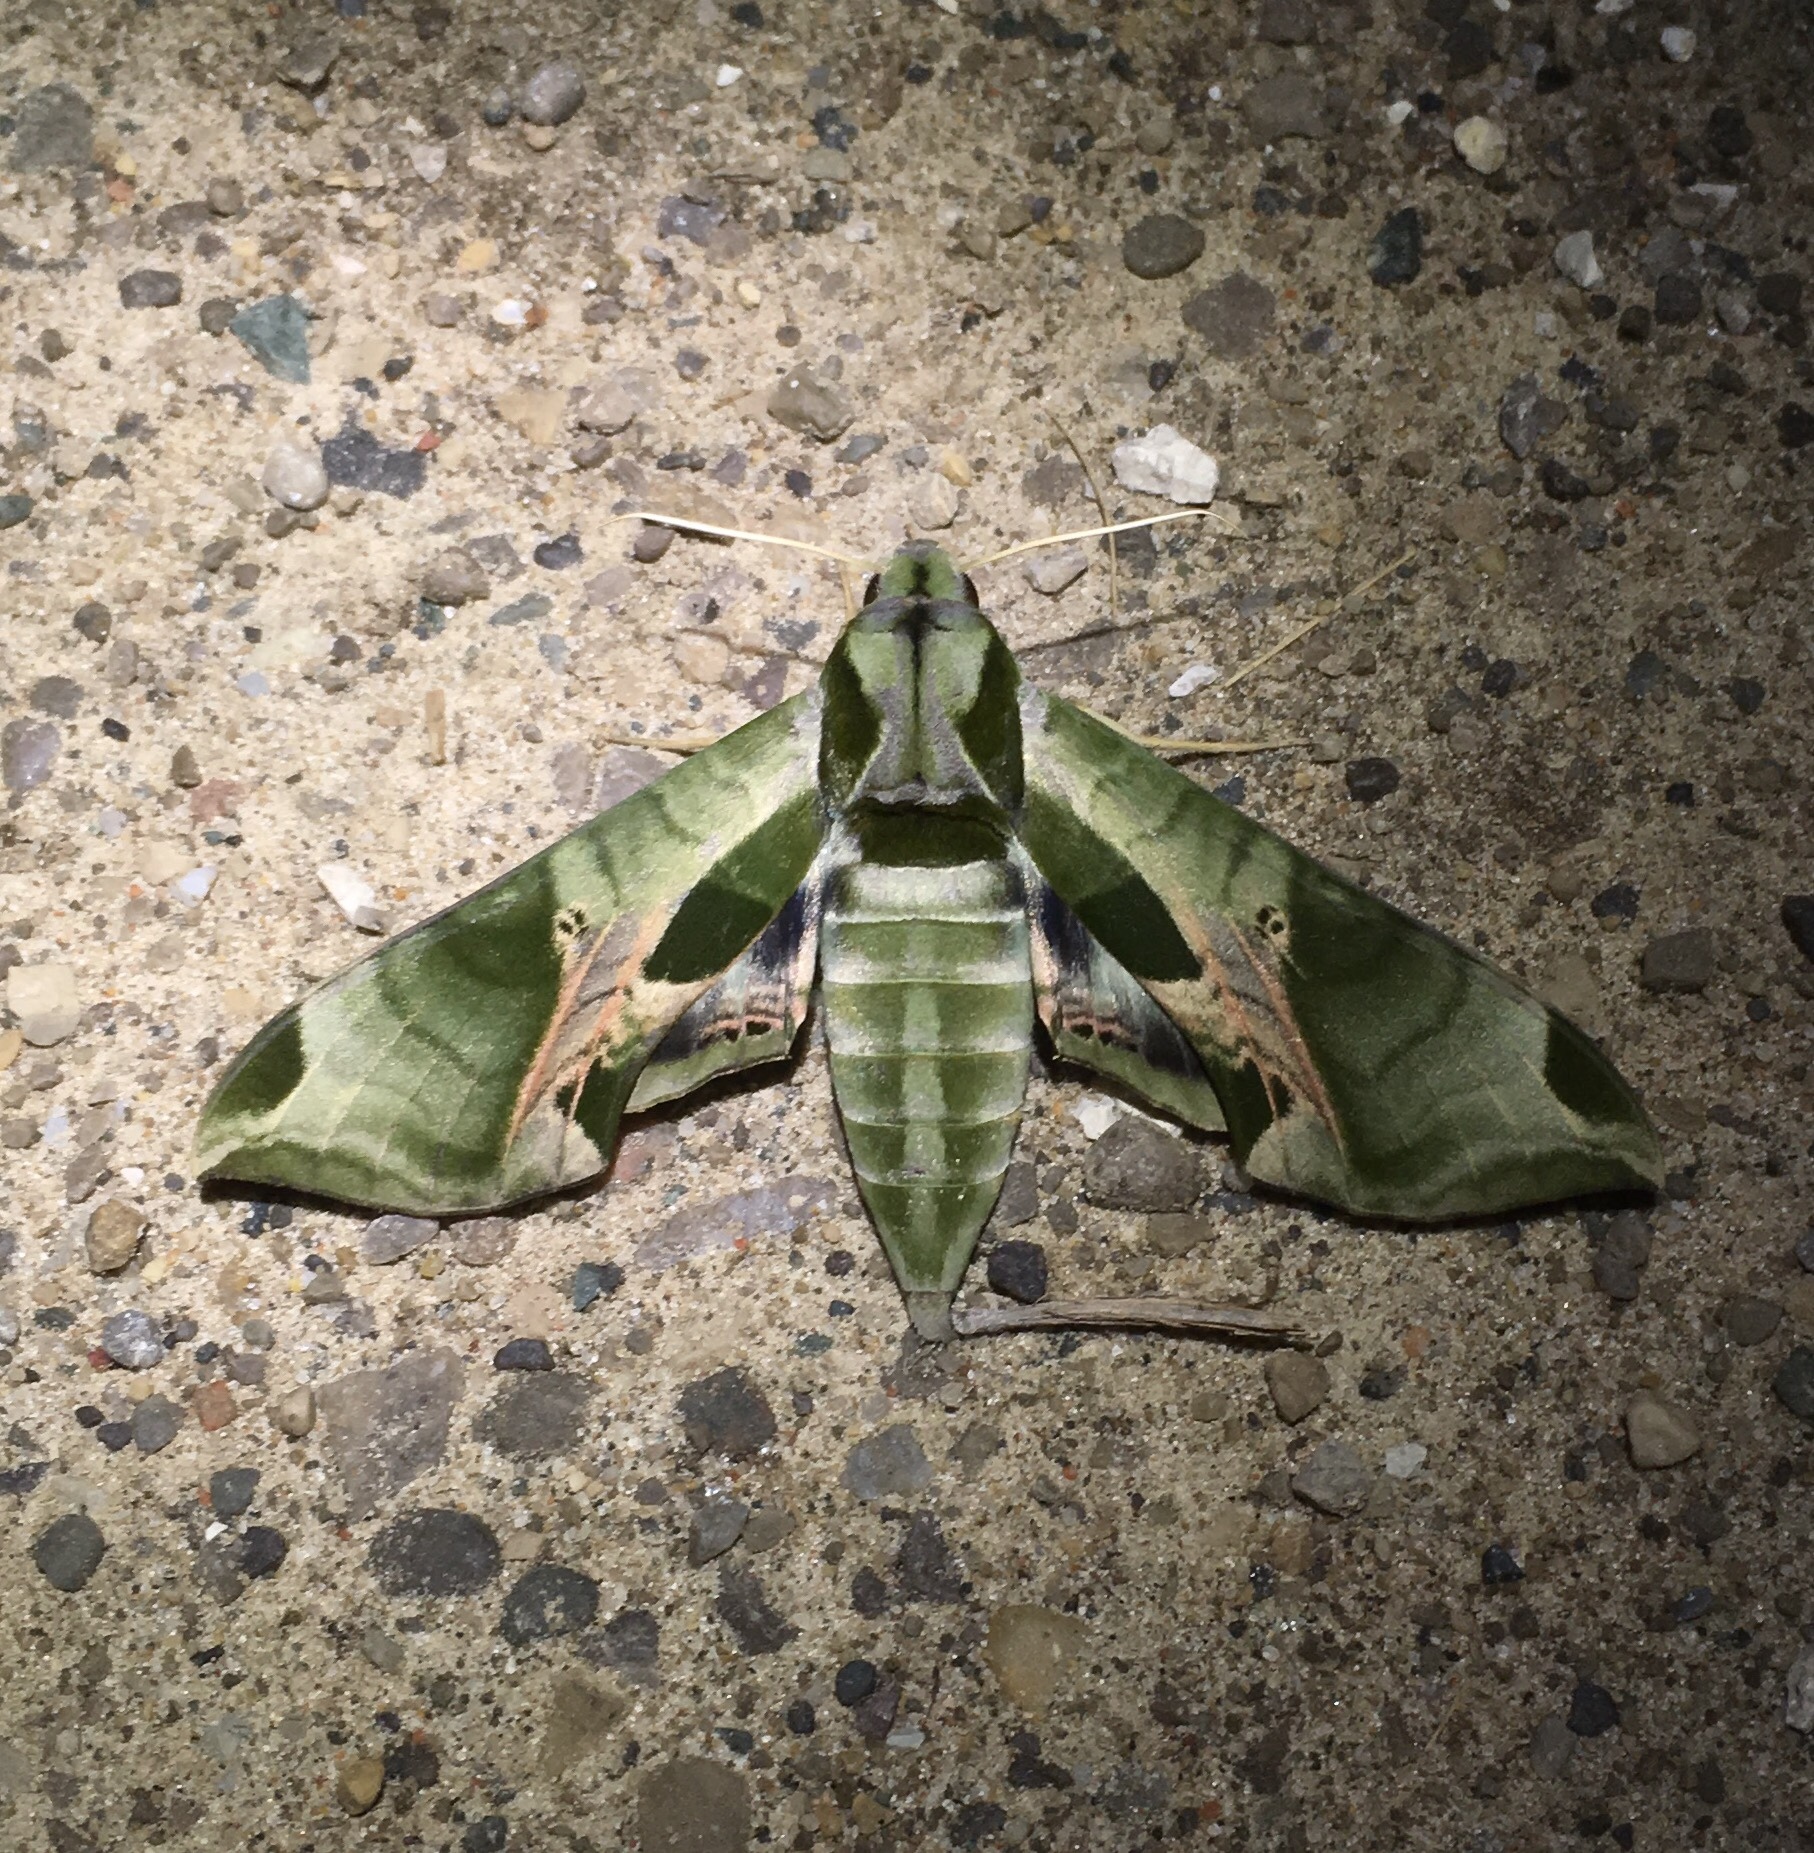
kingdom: Animalia
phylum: Arthropoda
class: Insecta
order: Lepidoptera
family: Sphingidae
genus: Eumorpha
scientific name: Eumorpha pandorus
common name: Pandora sphinx
